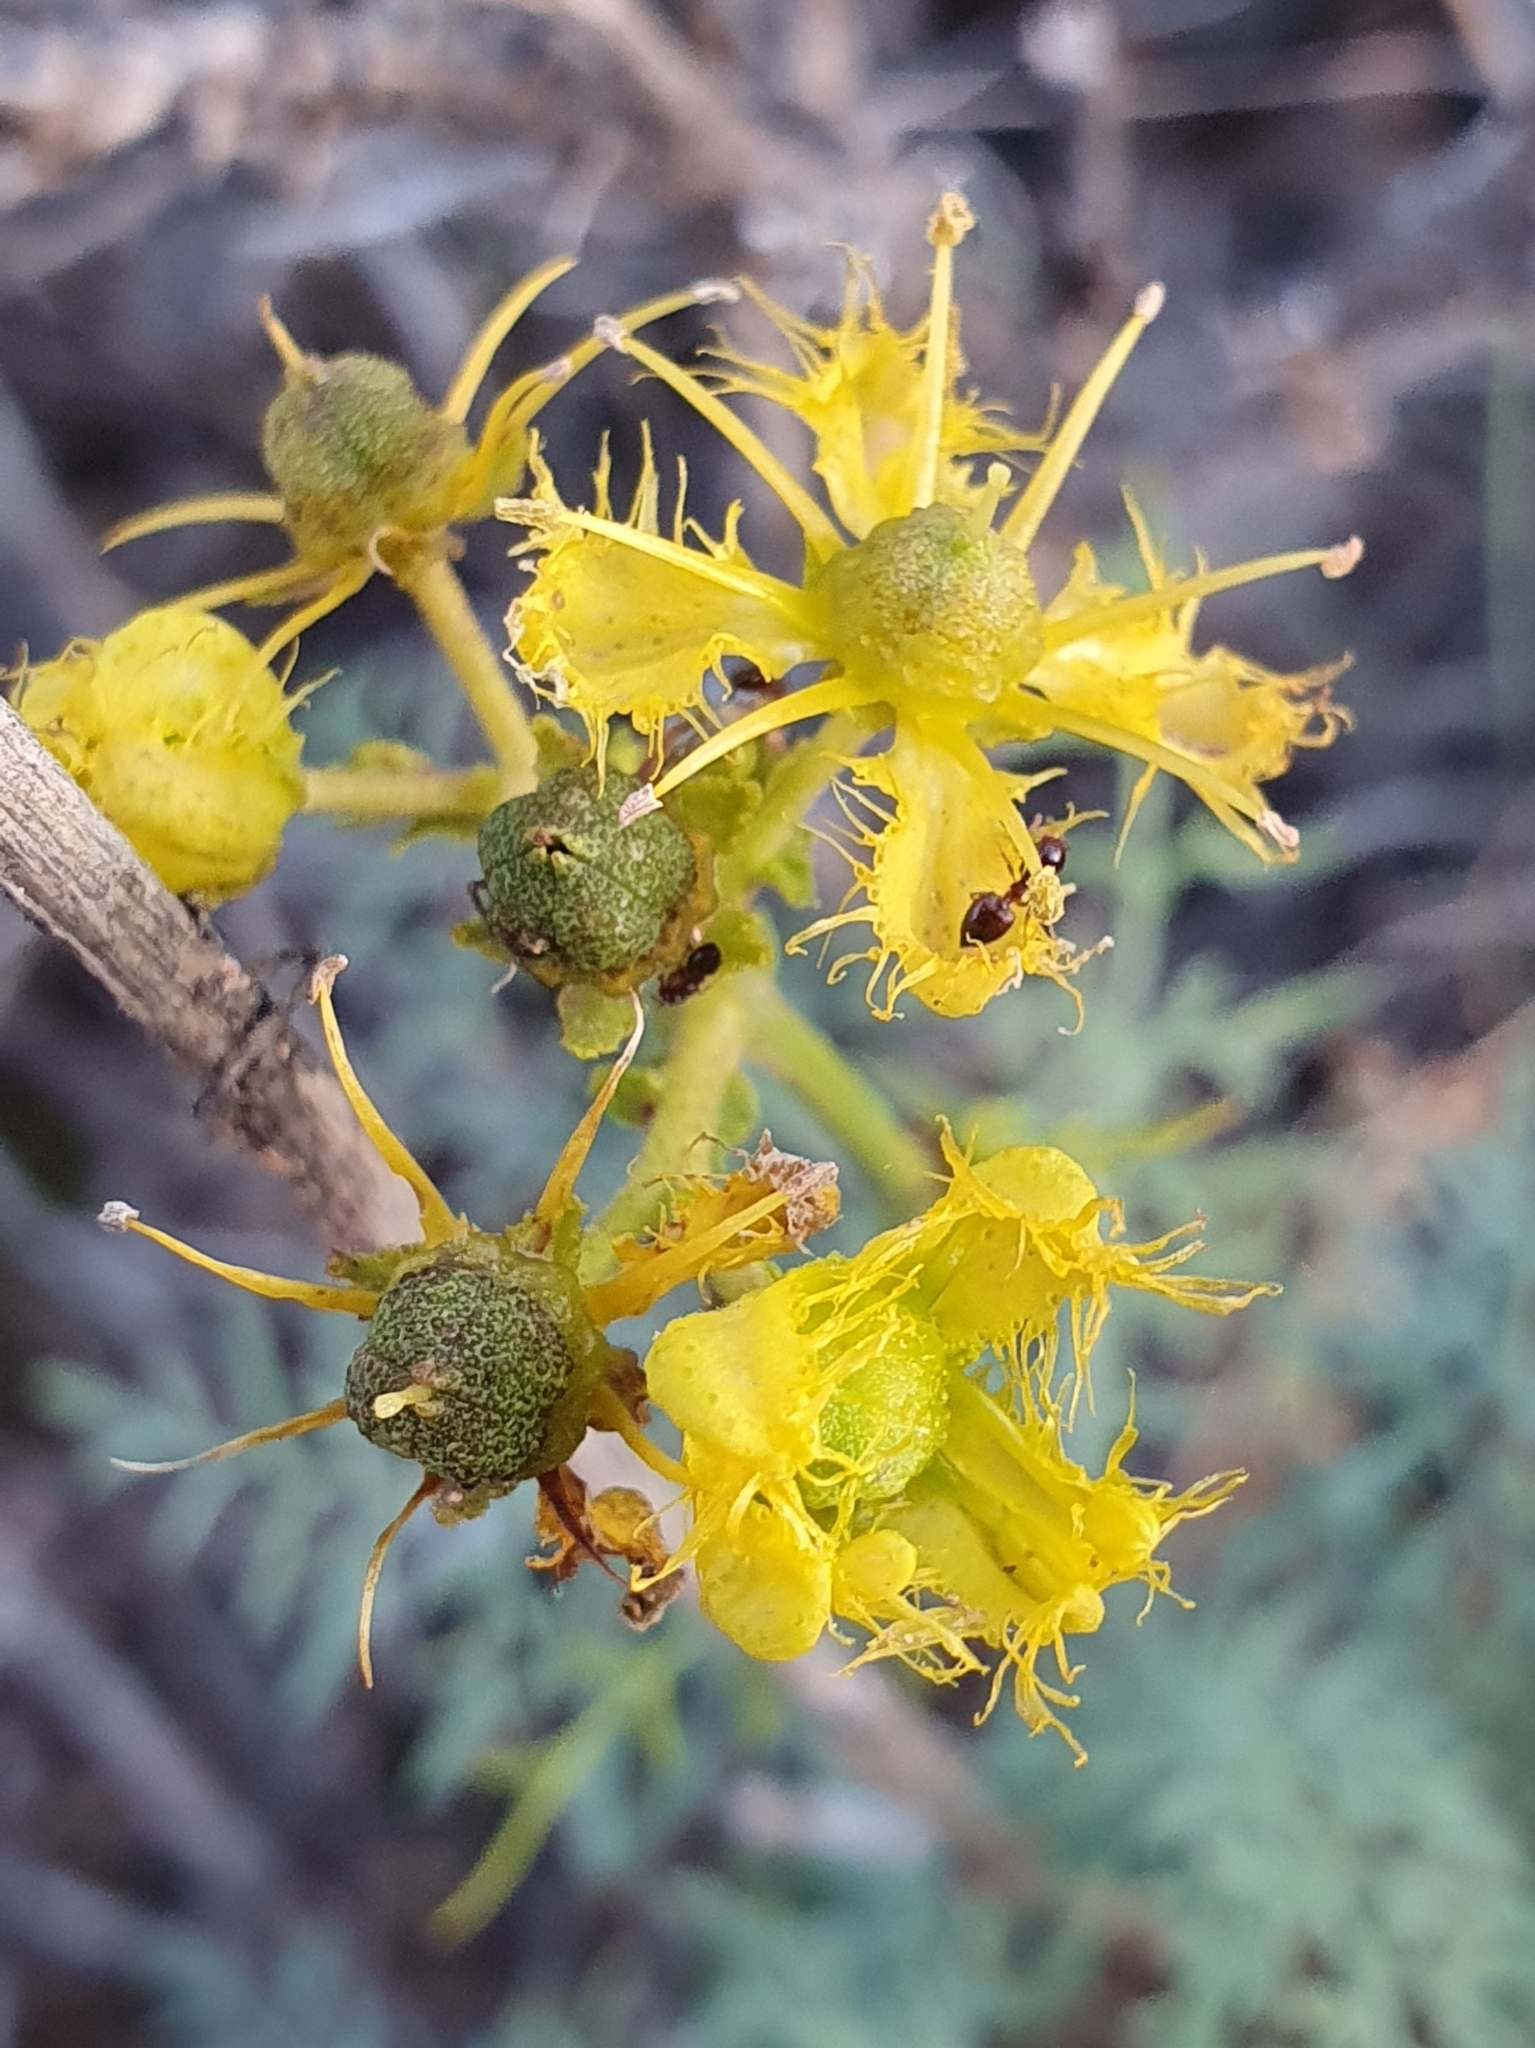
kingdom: Plantae
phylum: Tracheophyta
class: Magnoliopsida
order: Sapindales
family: Rutaceae
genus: Ruta
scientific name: Ruta angustifolia
